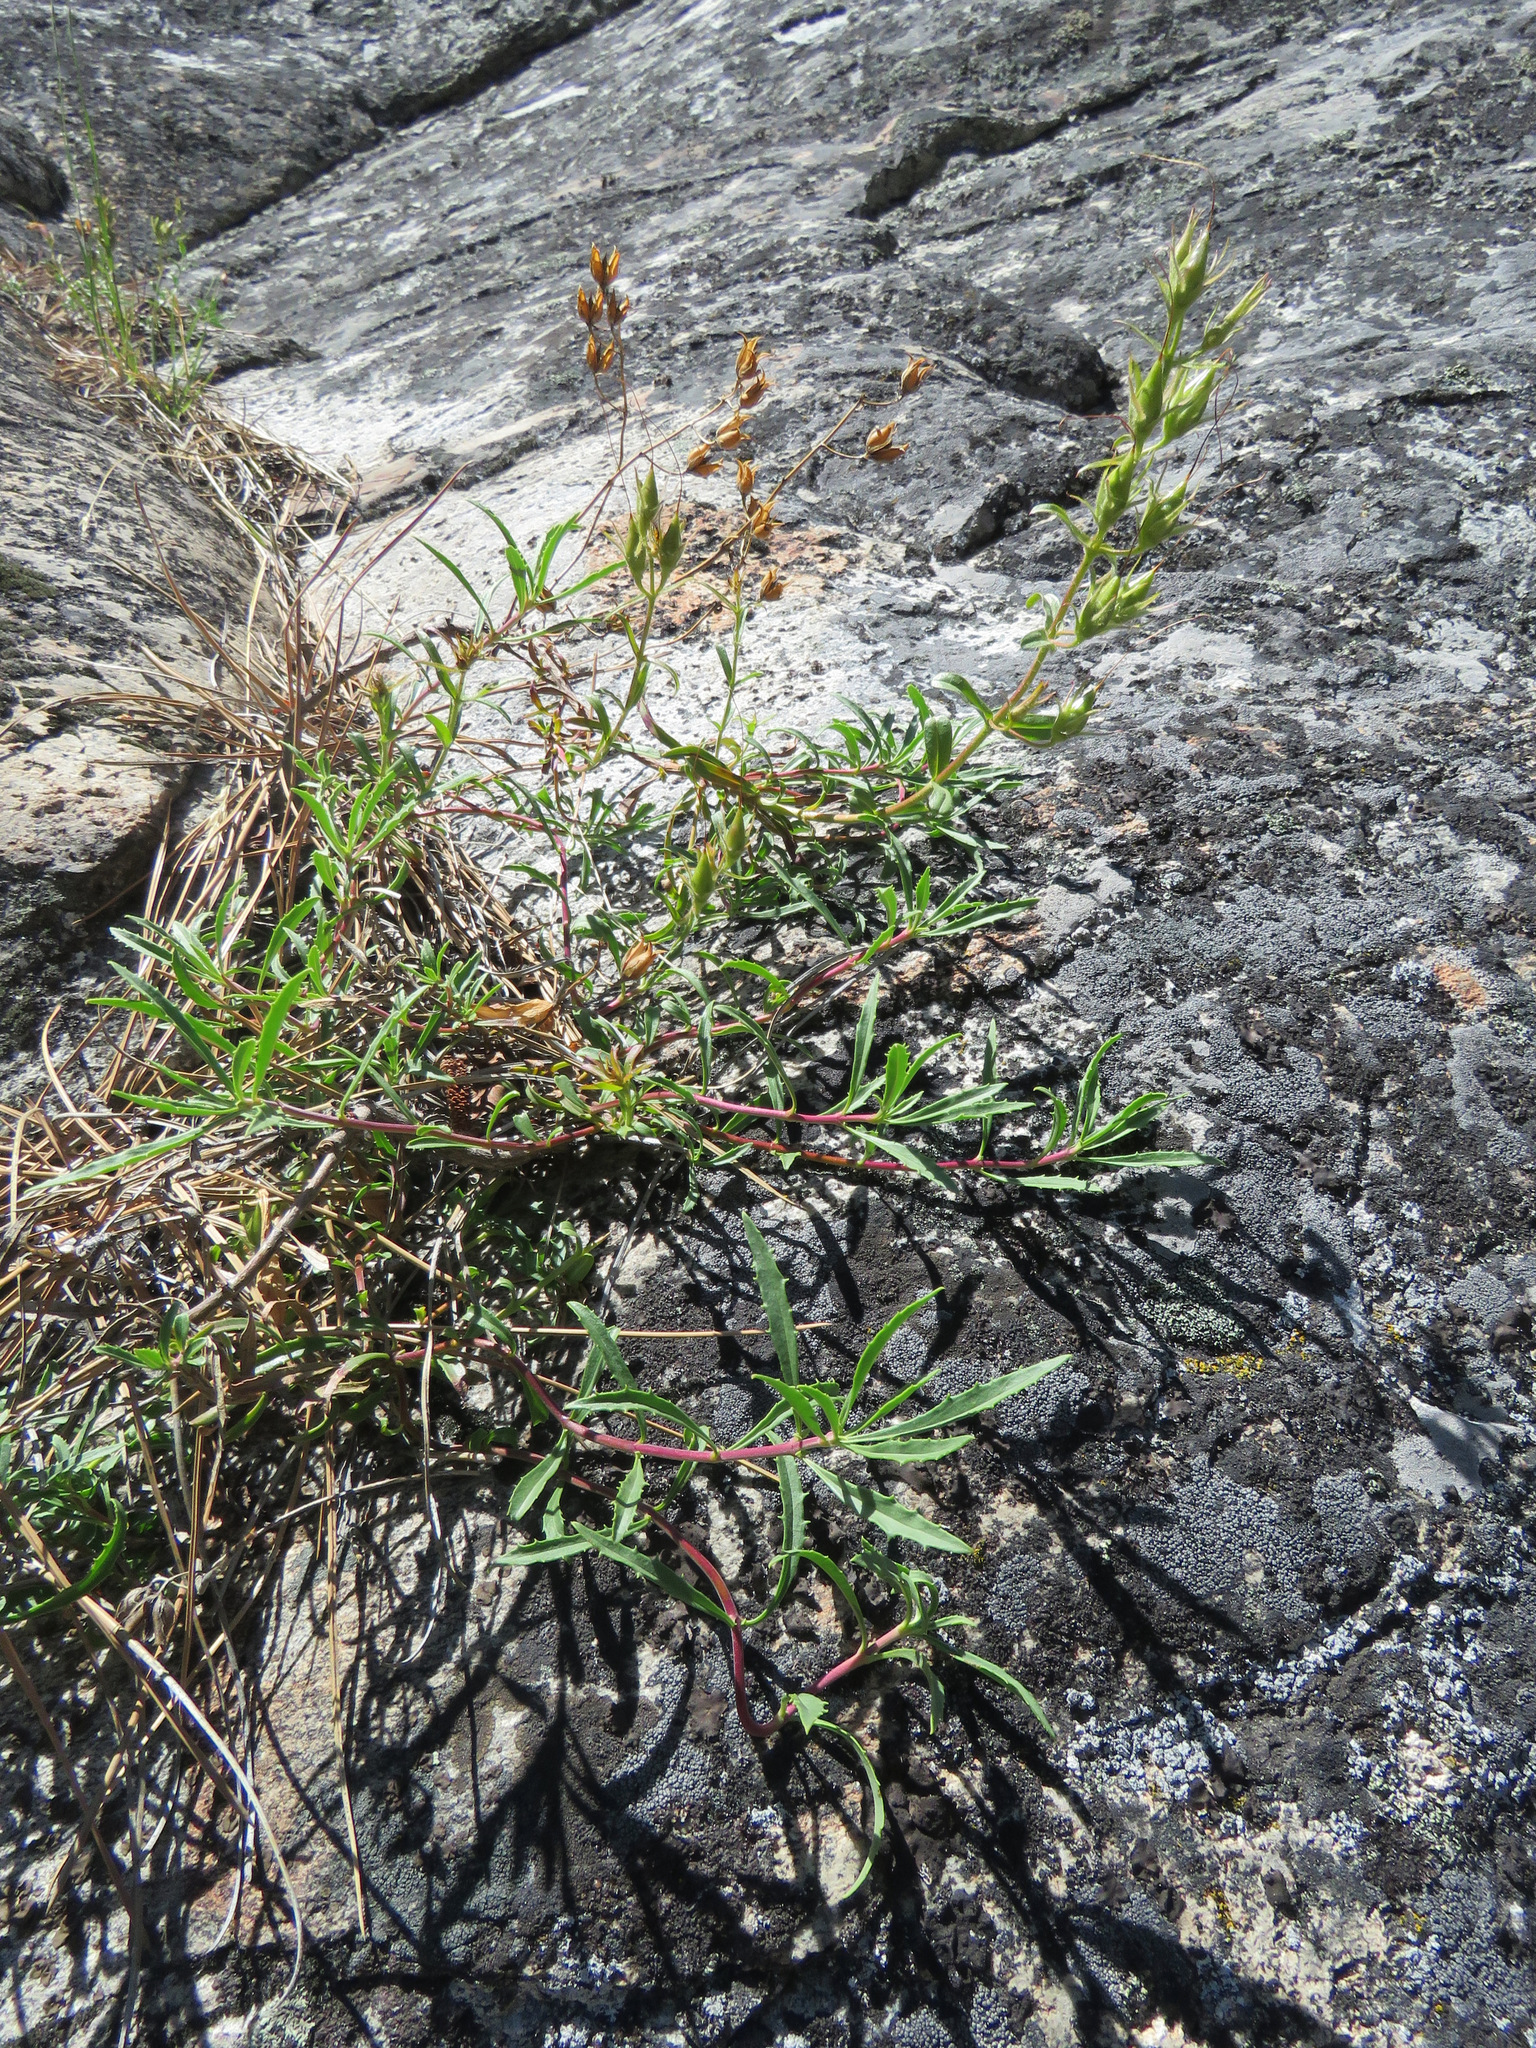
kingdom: Plantae
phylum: Tracheophyta
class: Magnoliopsida
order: Lamiales
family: Plantaginaceae
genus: Penstemon
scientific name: Penstemon fruticosus
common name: Bush penstemon
